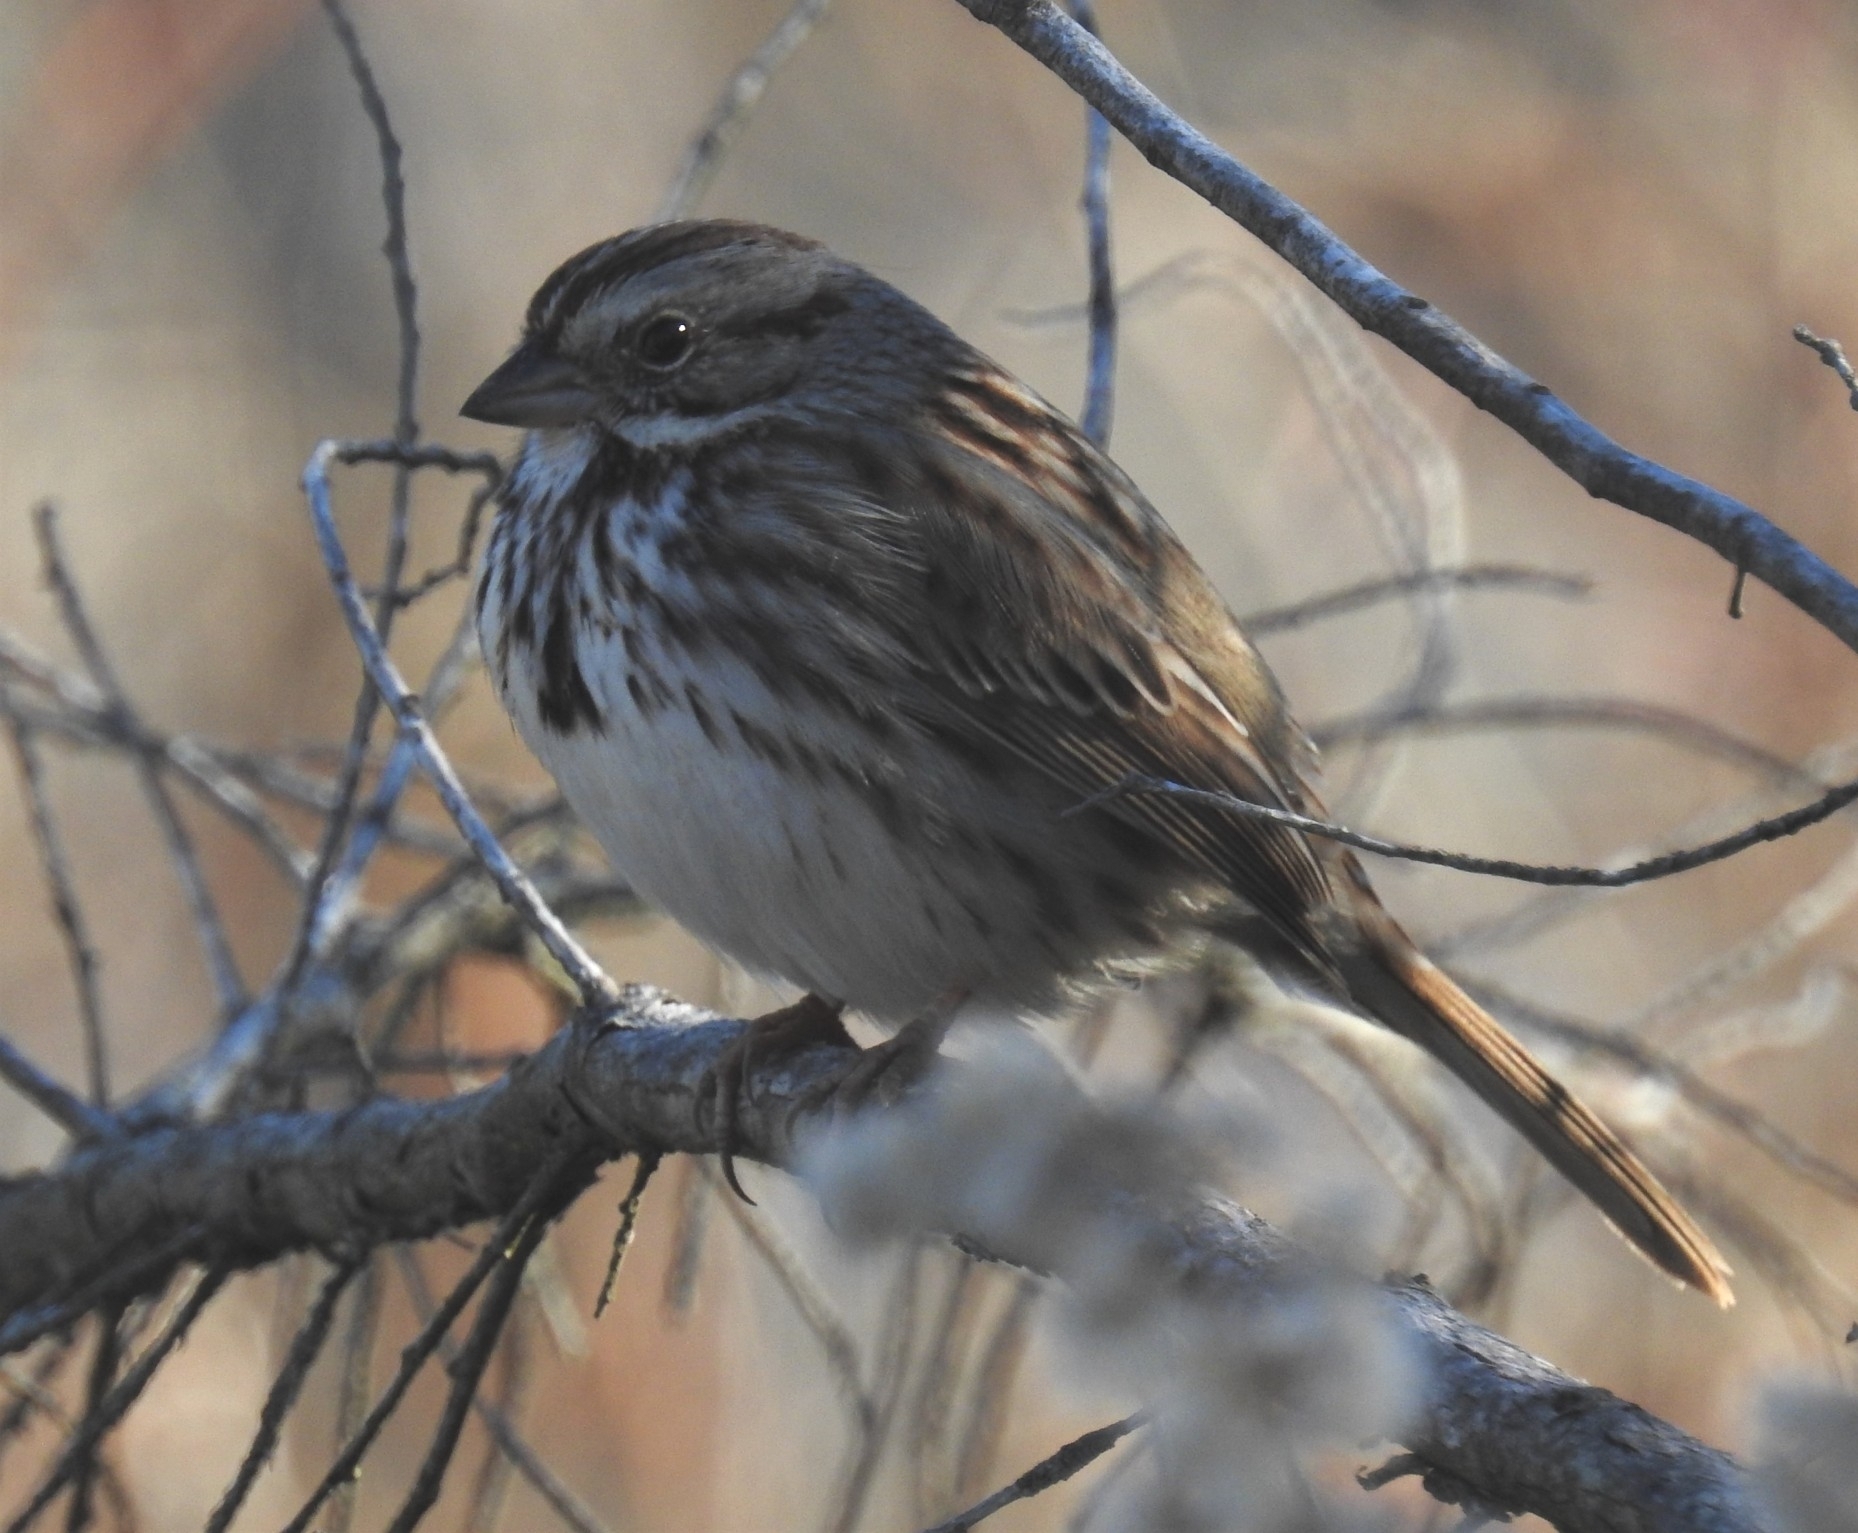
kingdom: Animalia
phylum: Chordata
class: Aves
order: Passeriformes
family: Passerellidae
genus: Melospiza
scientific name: Melospiza melodia
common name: Song sparrow
